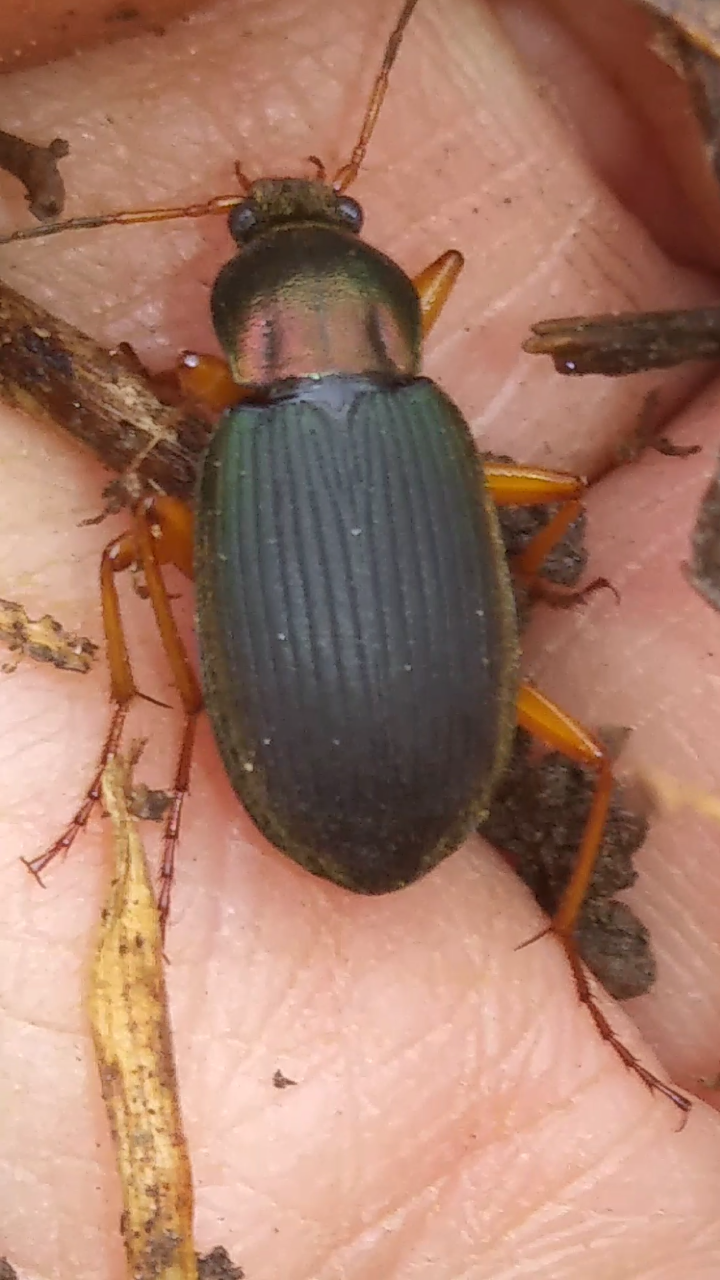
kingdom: Animalia
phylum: Arthropoda
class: Insecta
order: Coleoptera
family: Carabidae
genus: Chlaenius
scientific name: Chlaenius aestivus
